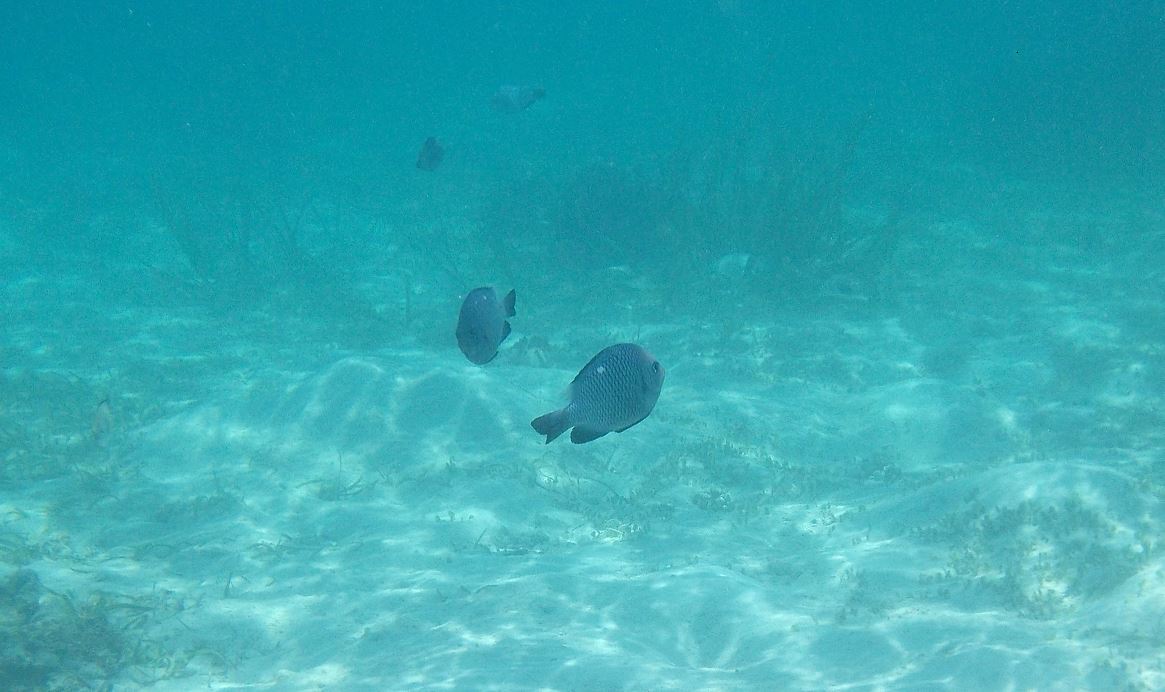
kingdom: Animalia
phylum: Chordata
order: Perciformes
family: Pomacentridae
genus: Dascyllus
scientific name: Dascyllus trimaculatus
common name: Threespot dascyllus
